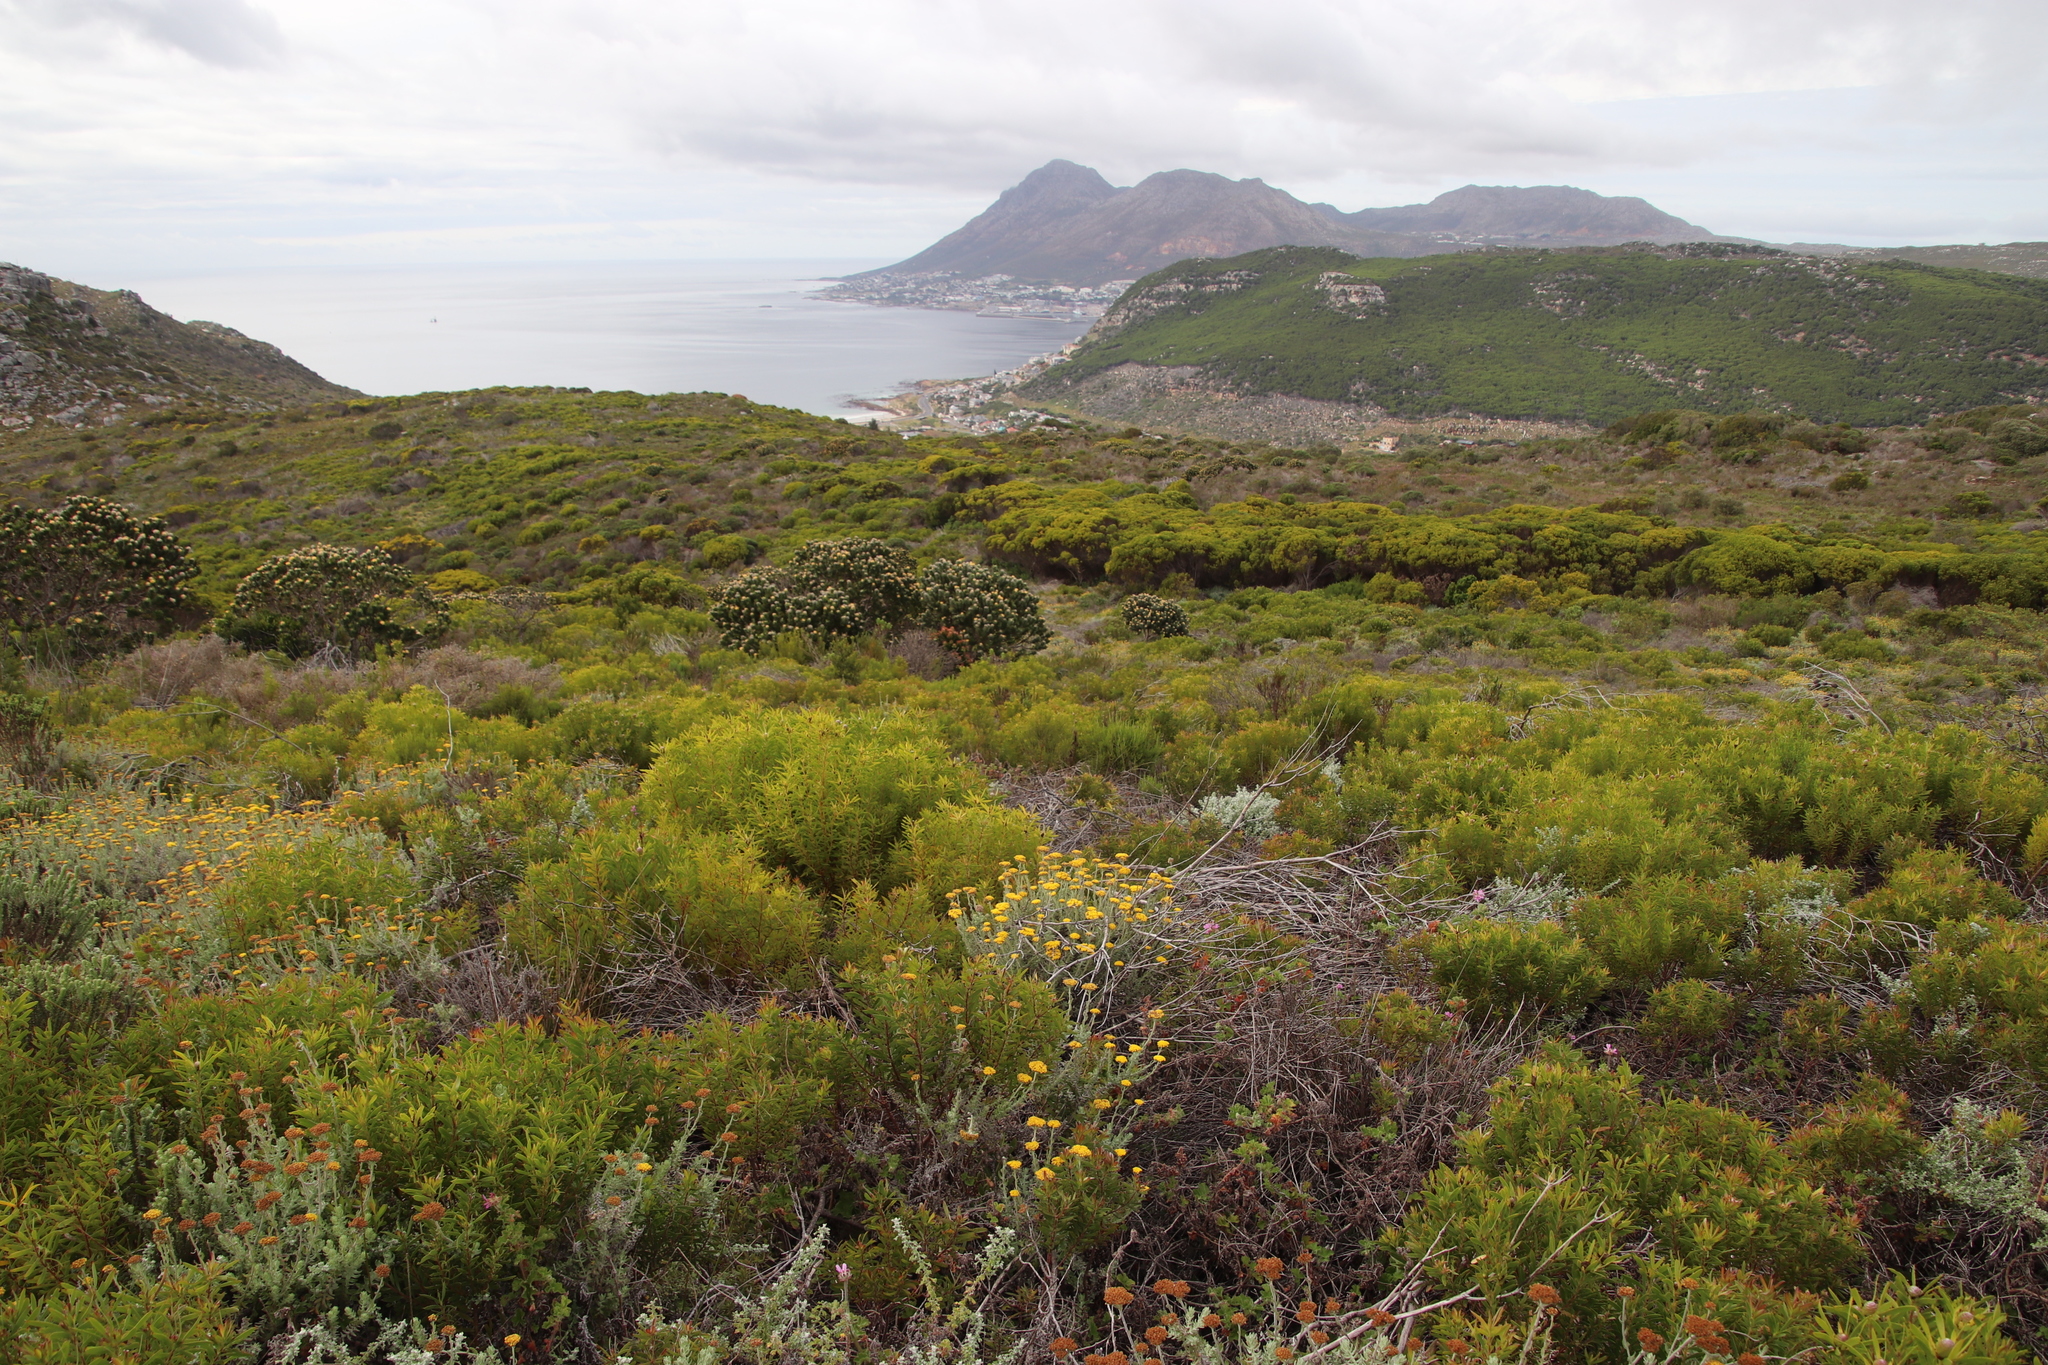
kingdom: Plantae
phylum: Tracheophyta
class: Magnoliopsida
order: Proteales
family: Proteaceae
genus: Leucadendron
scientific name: Leucadendron coniferum
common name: Dune conebush
